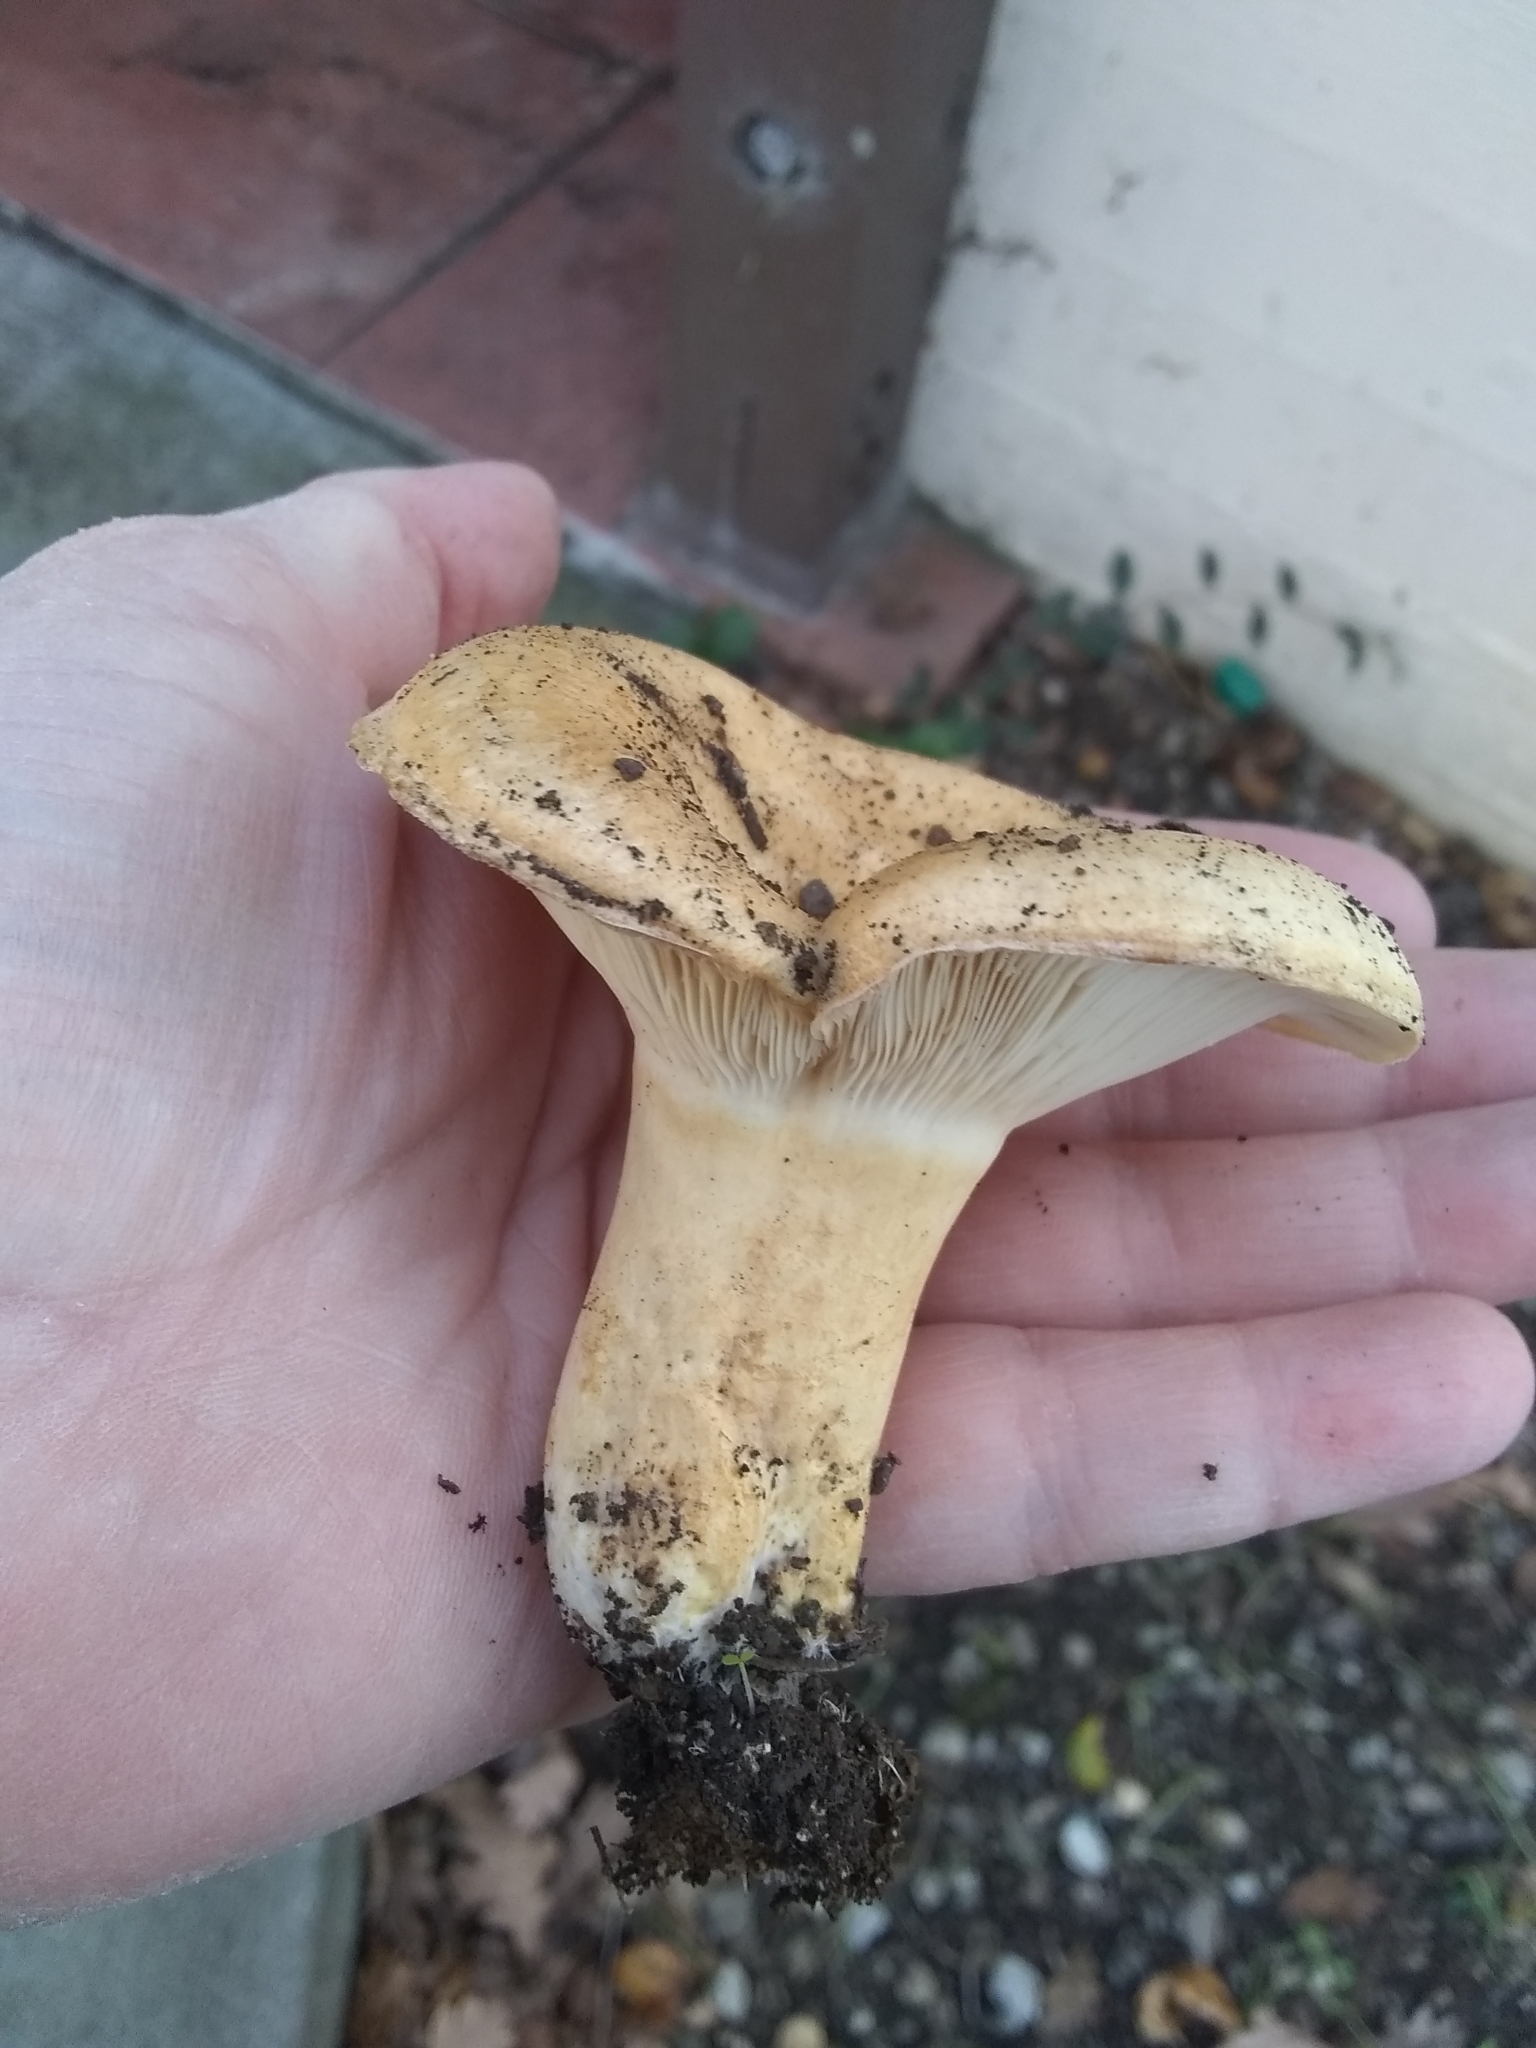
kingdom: Fungi
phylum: Basidiomycota
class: Agaricomycetes
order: Russulales
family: Russulaceae
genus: Lactarius
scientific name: Lactarius alnicola
